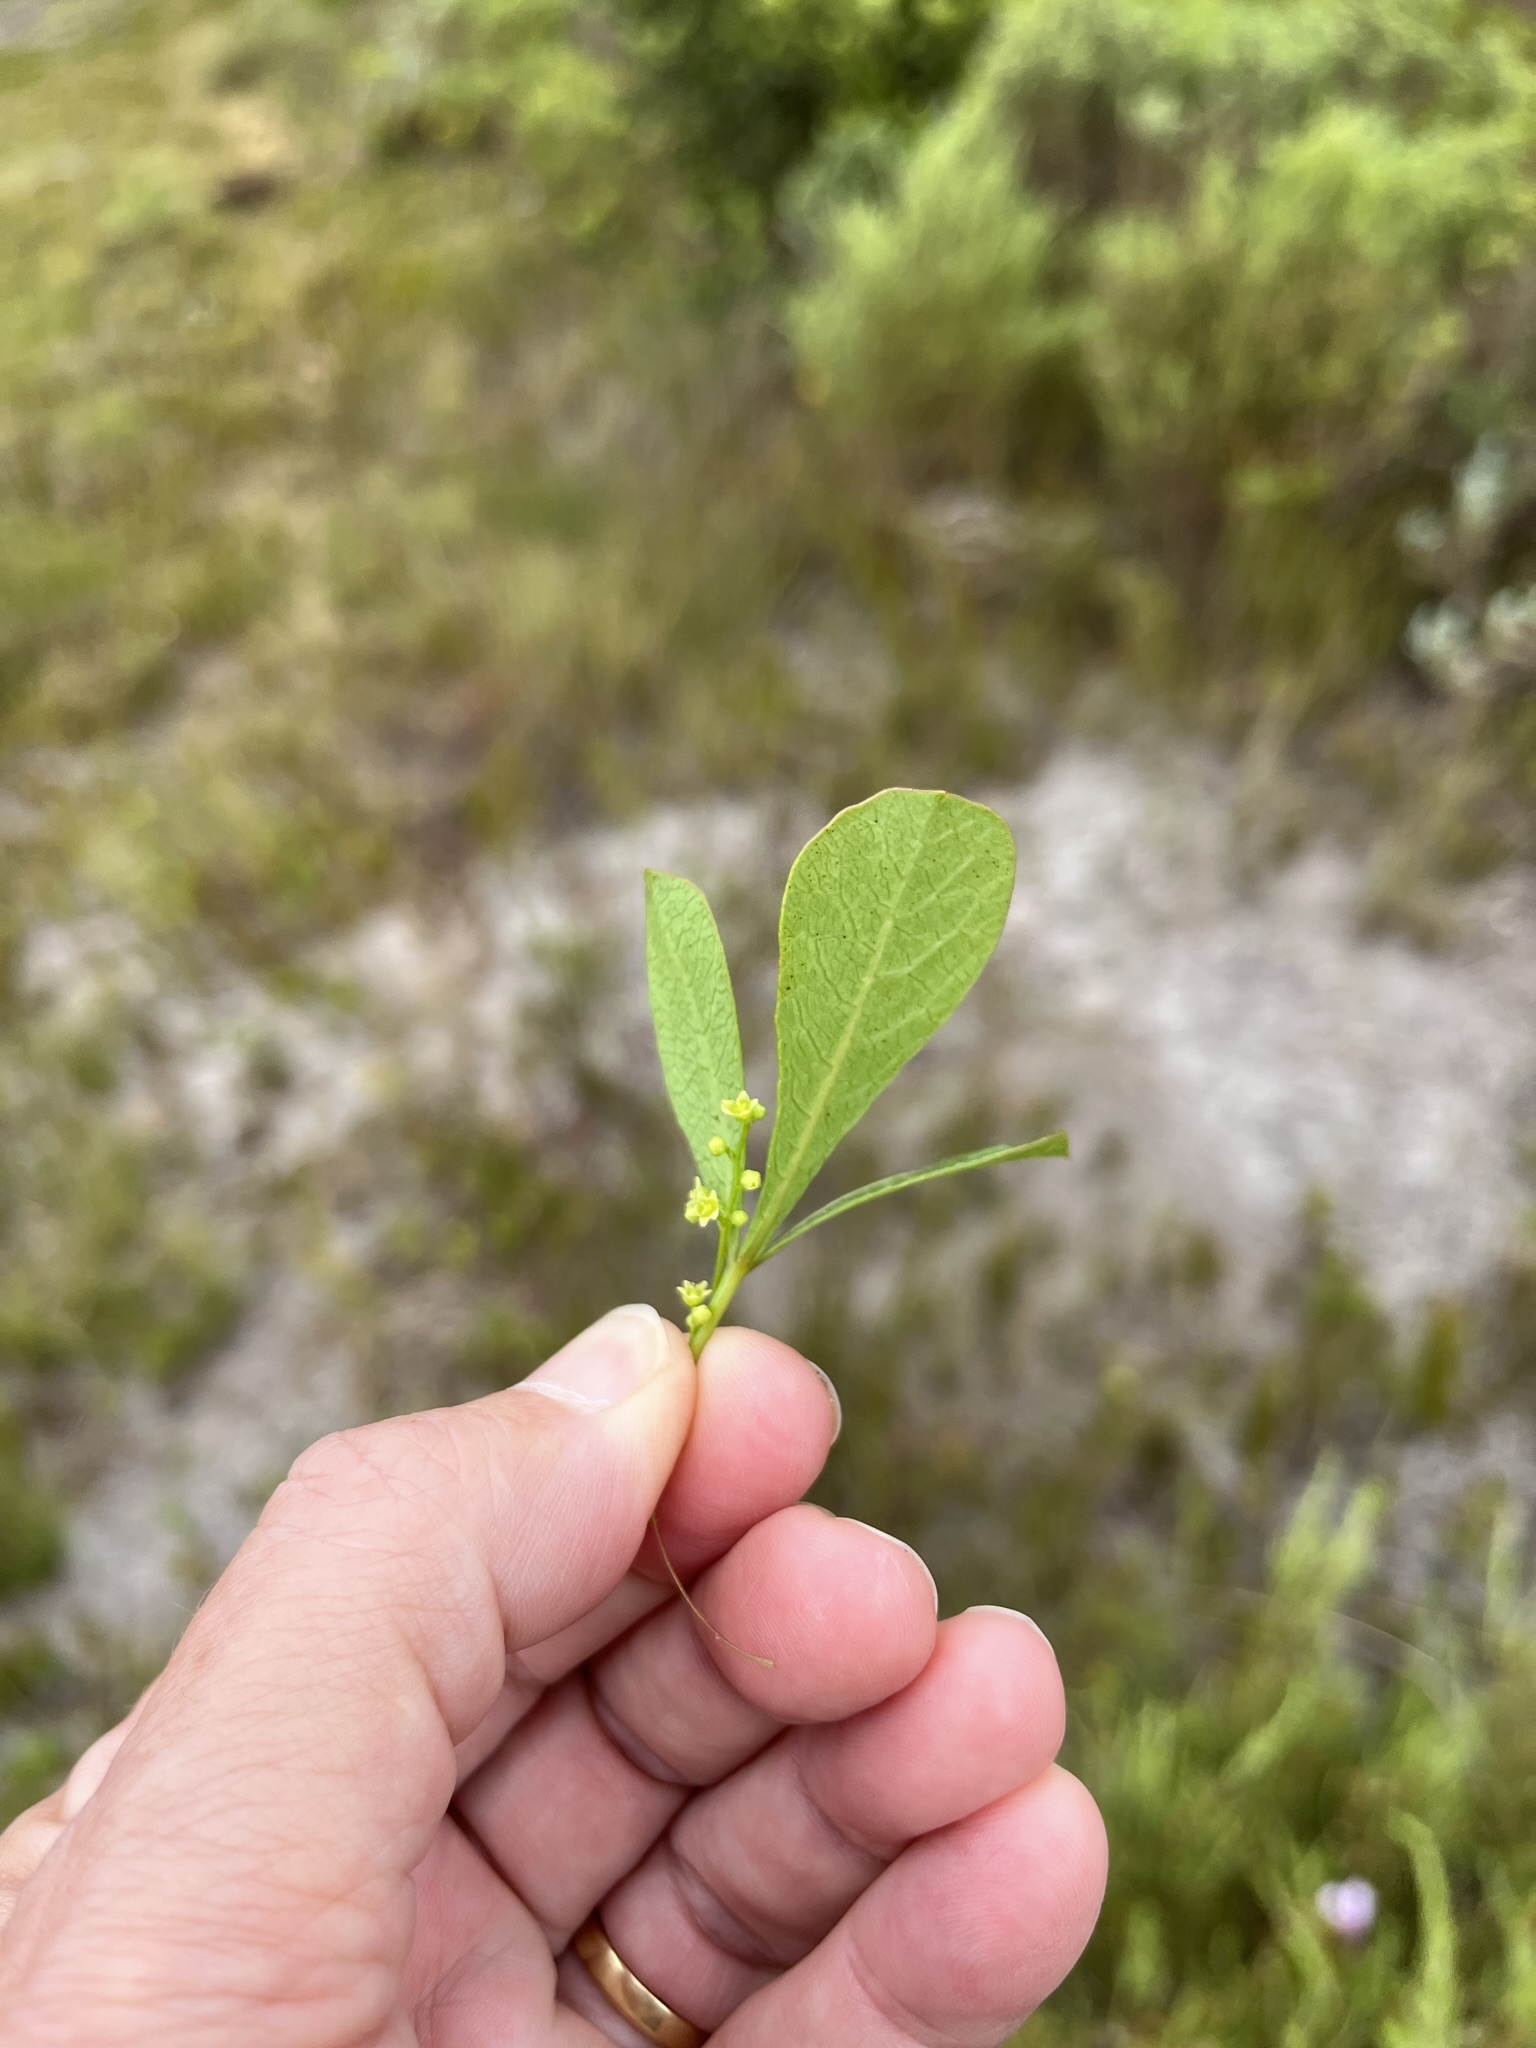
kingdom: Plantae
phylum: Tracheophyta
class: Magnoliopsida
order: Sapindales
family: Anacardiaceae
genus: Searsia
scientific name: Searsia laevigata
